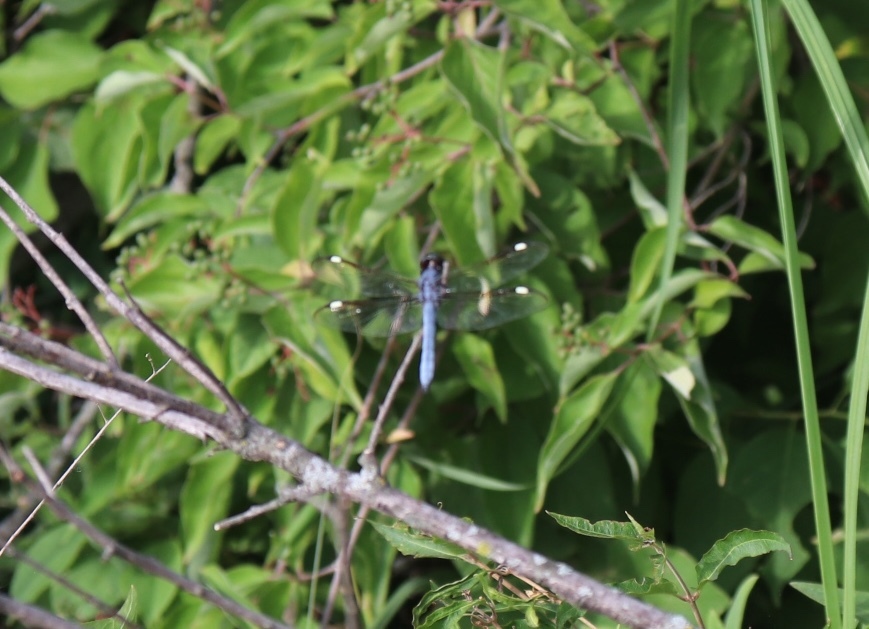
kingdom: Animalia
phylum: Arthropoda
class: Insecta
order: Odonata
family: Libellulidae
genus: Libellula
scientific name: Libellula cyanea
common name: Spangled skimmer
